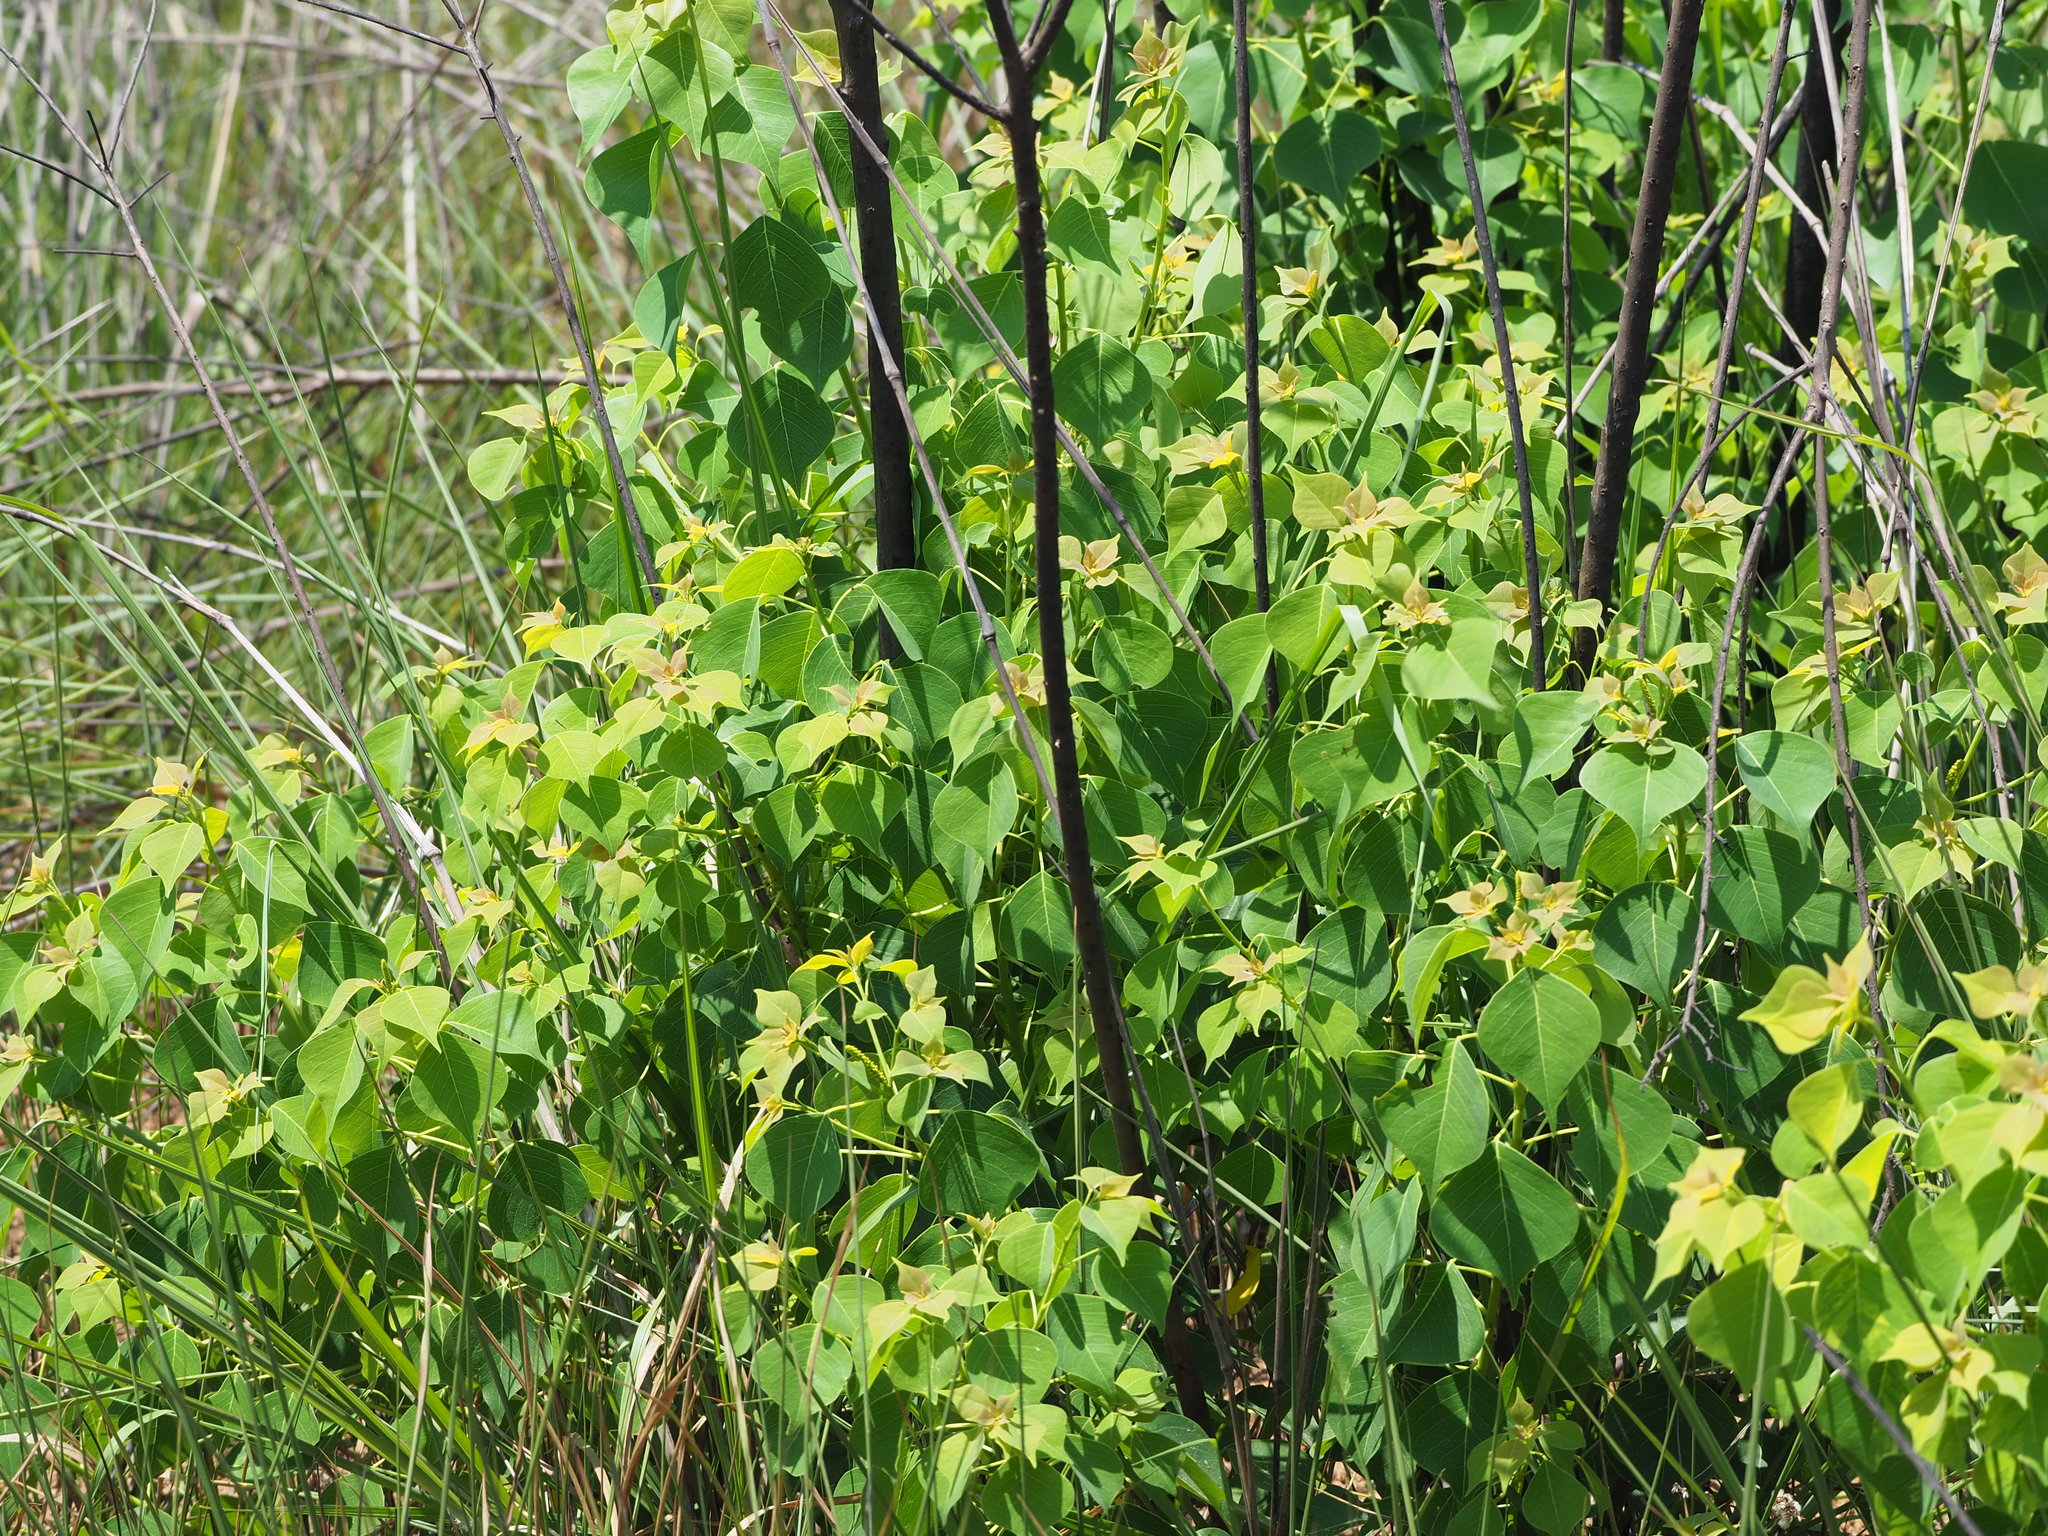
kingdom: Plantae
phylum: Tracheophyta
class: Magnoliopsida
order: Malpighiales
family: Euphorbiaceae
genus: Triadica
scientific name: Triadica sebifera
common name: Chinese tallow
